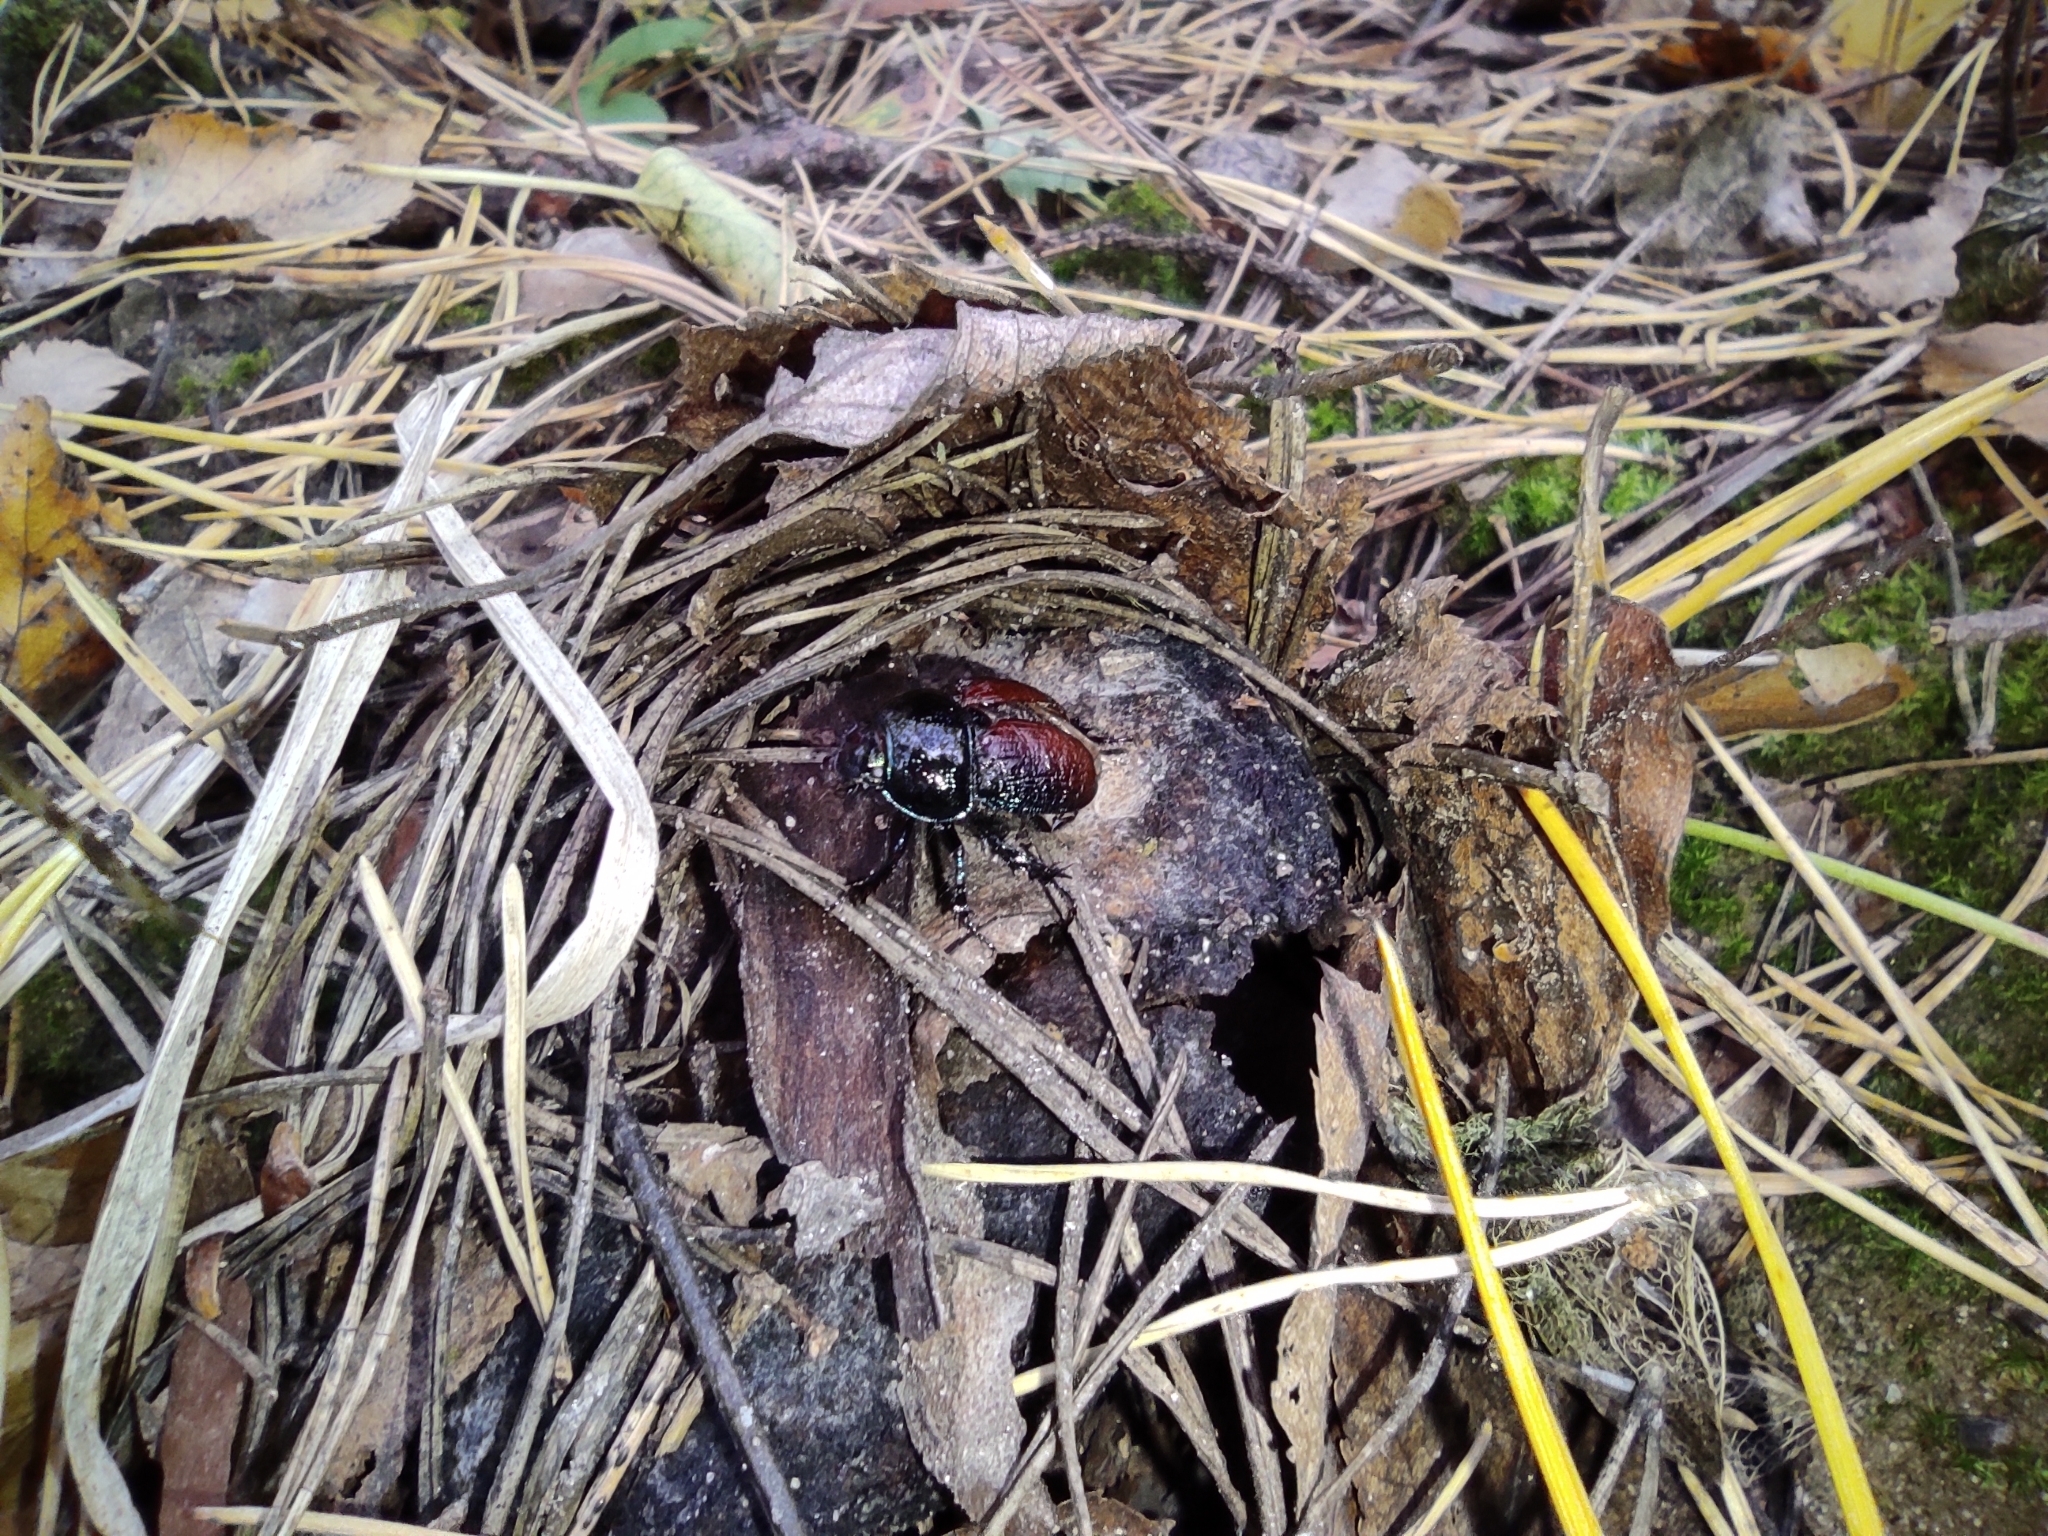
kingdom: Animalia
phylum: Arthropoda
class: Insecta
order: Coleoptera
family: Geotrupidae
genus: Anoplotrupes
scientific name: Anoplotrupes stercorosus
